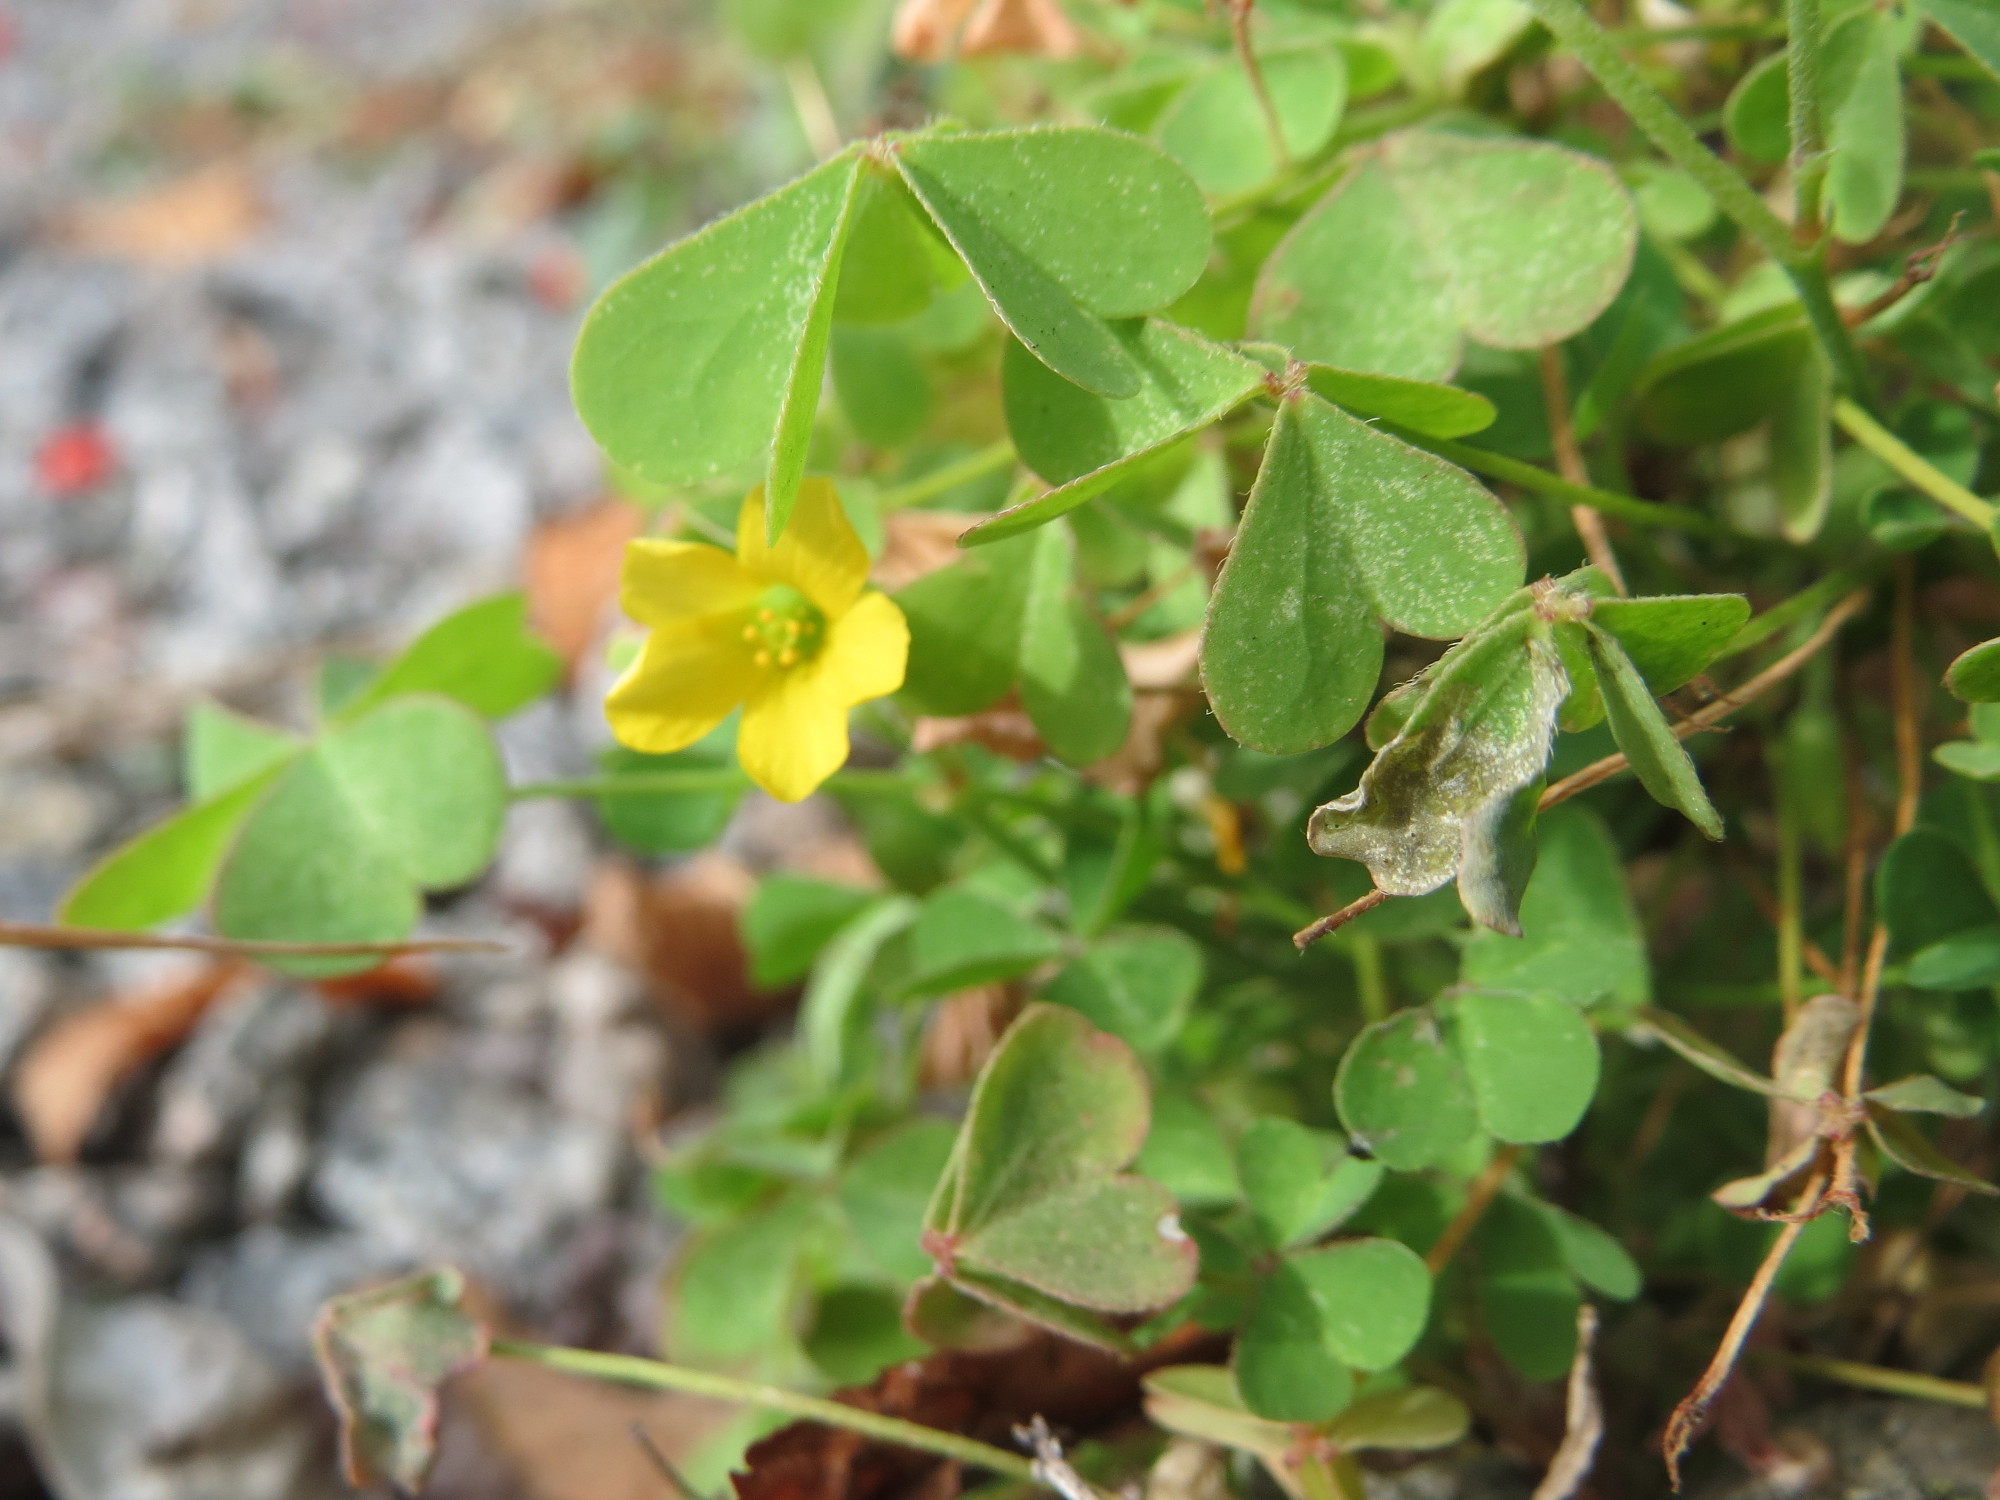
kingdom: Plantae
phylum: Tracheophyta
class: Magnoliopsida
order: Oxalidales
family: Oxalidaceae
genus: Oxalis
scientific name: Oxalis stricta
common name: Upright yellow-sorrel
